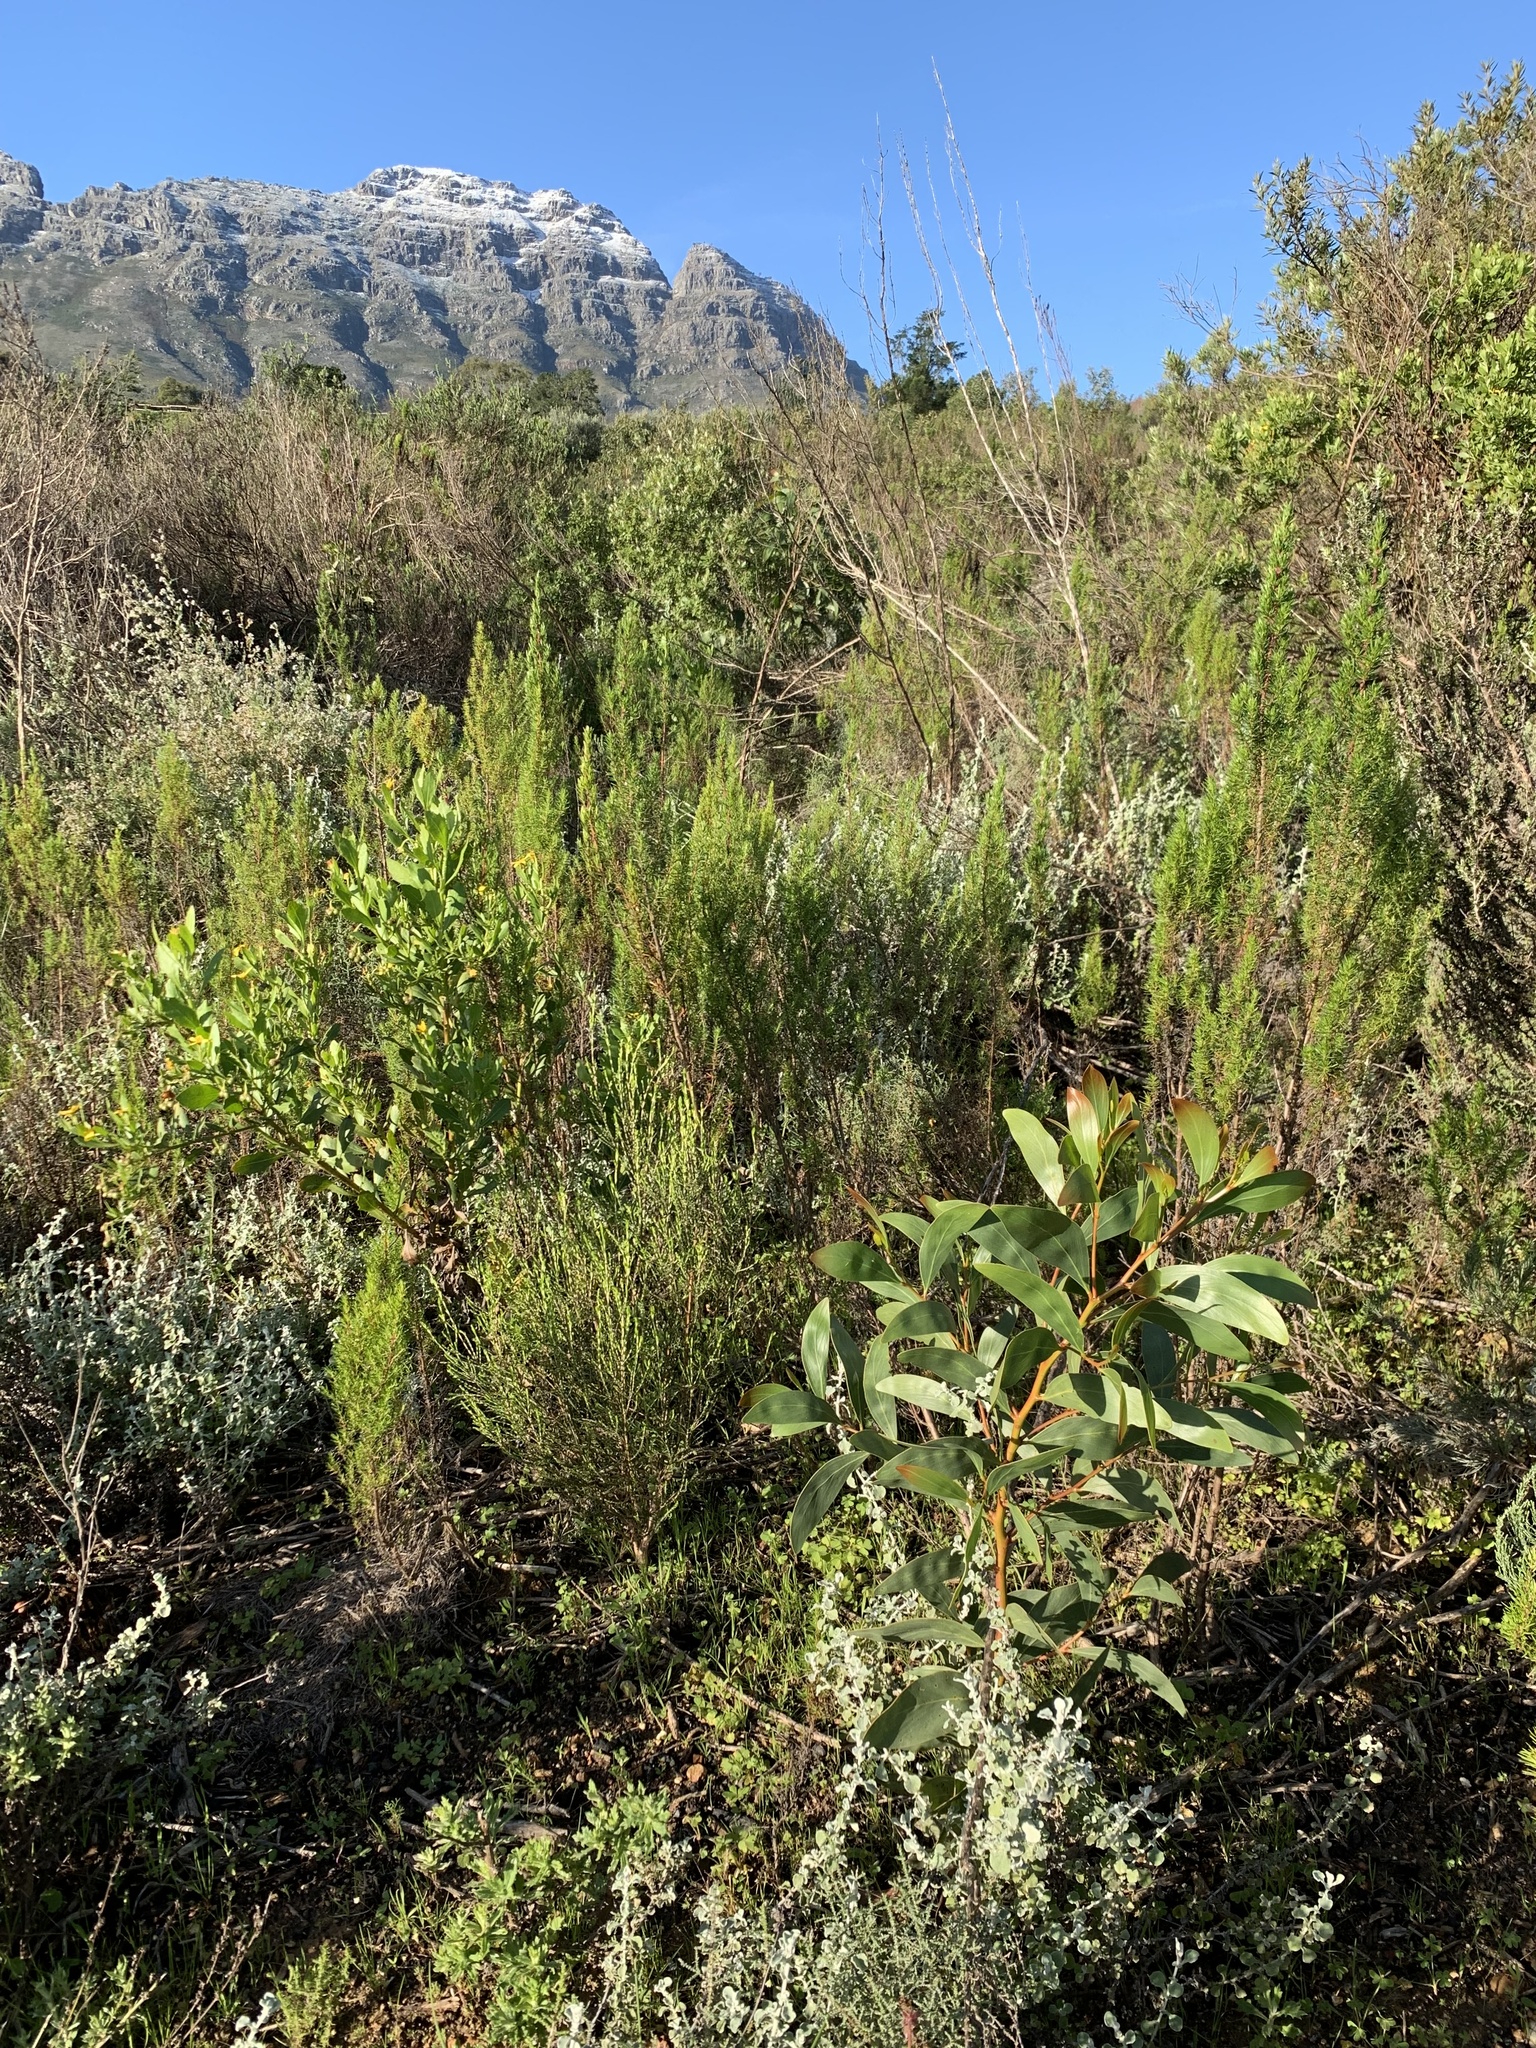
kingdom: Plantae
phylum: Tracheophyta
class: Magnoliopsida
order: Fabales
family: Fabaceae
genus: Acacia
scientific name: Acacia pycnantha
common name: Golden wattle
